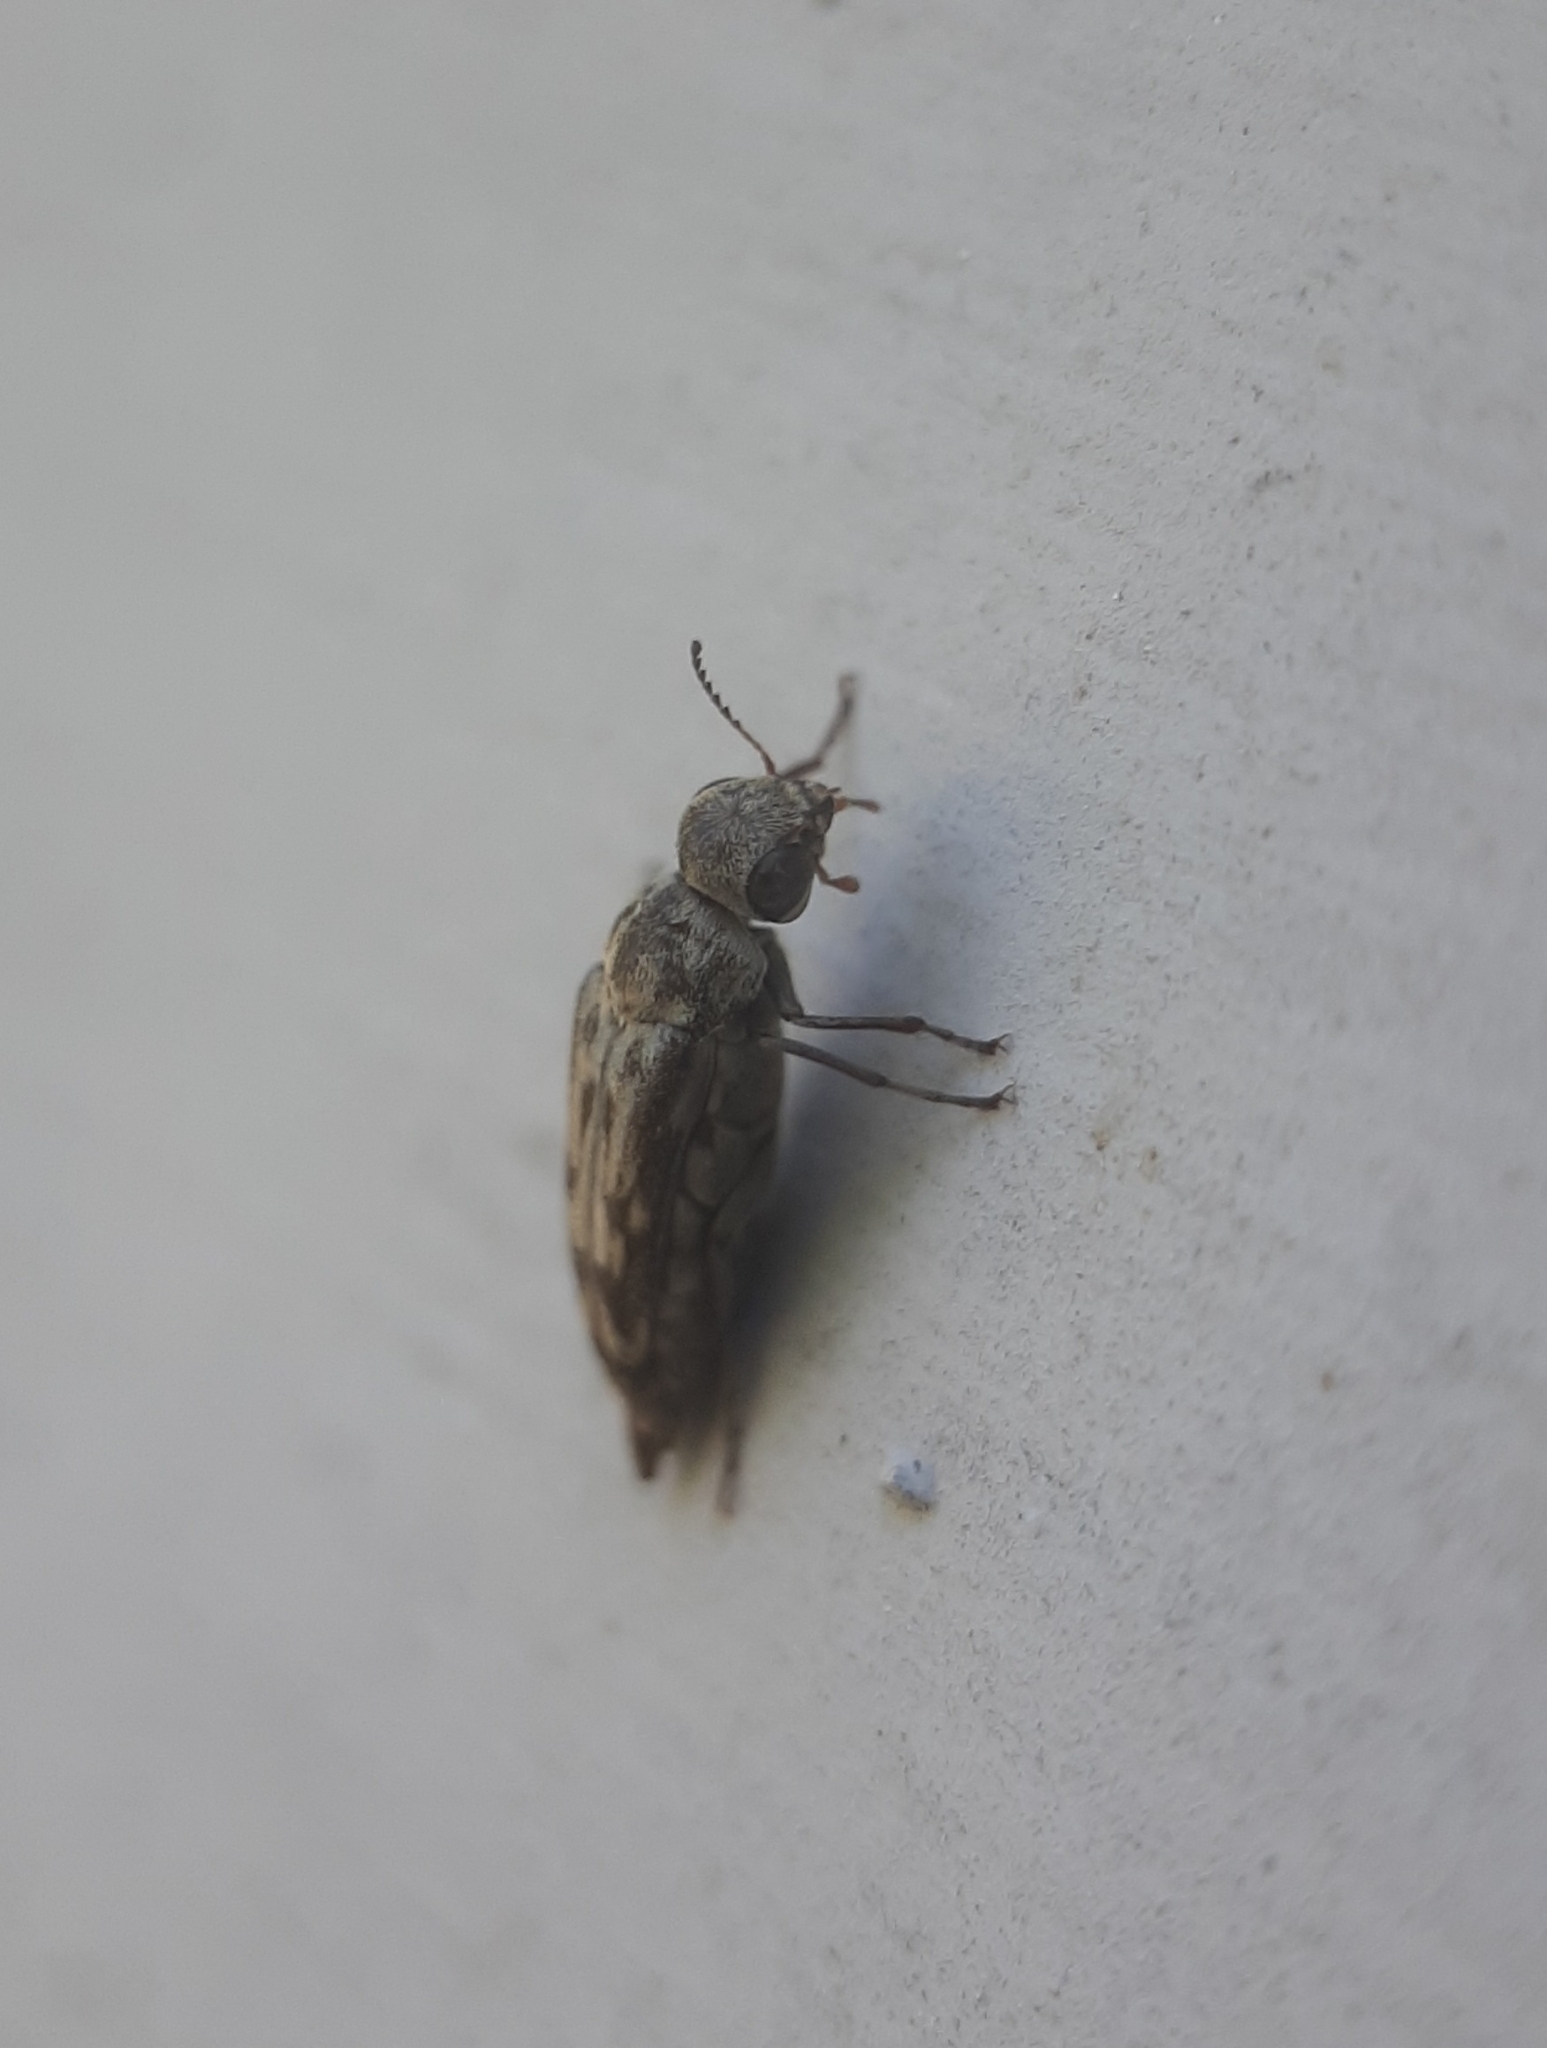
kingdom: Animalia
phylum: Arthropoda
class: Insecta
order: Coleoptera
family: Mordellidae
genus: Yakuhananomia
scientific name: Yakuhananomia bidentata
